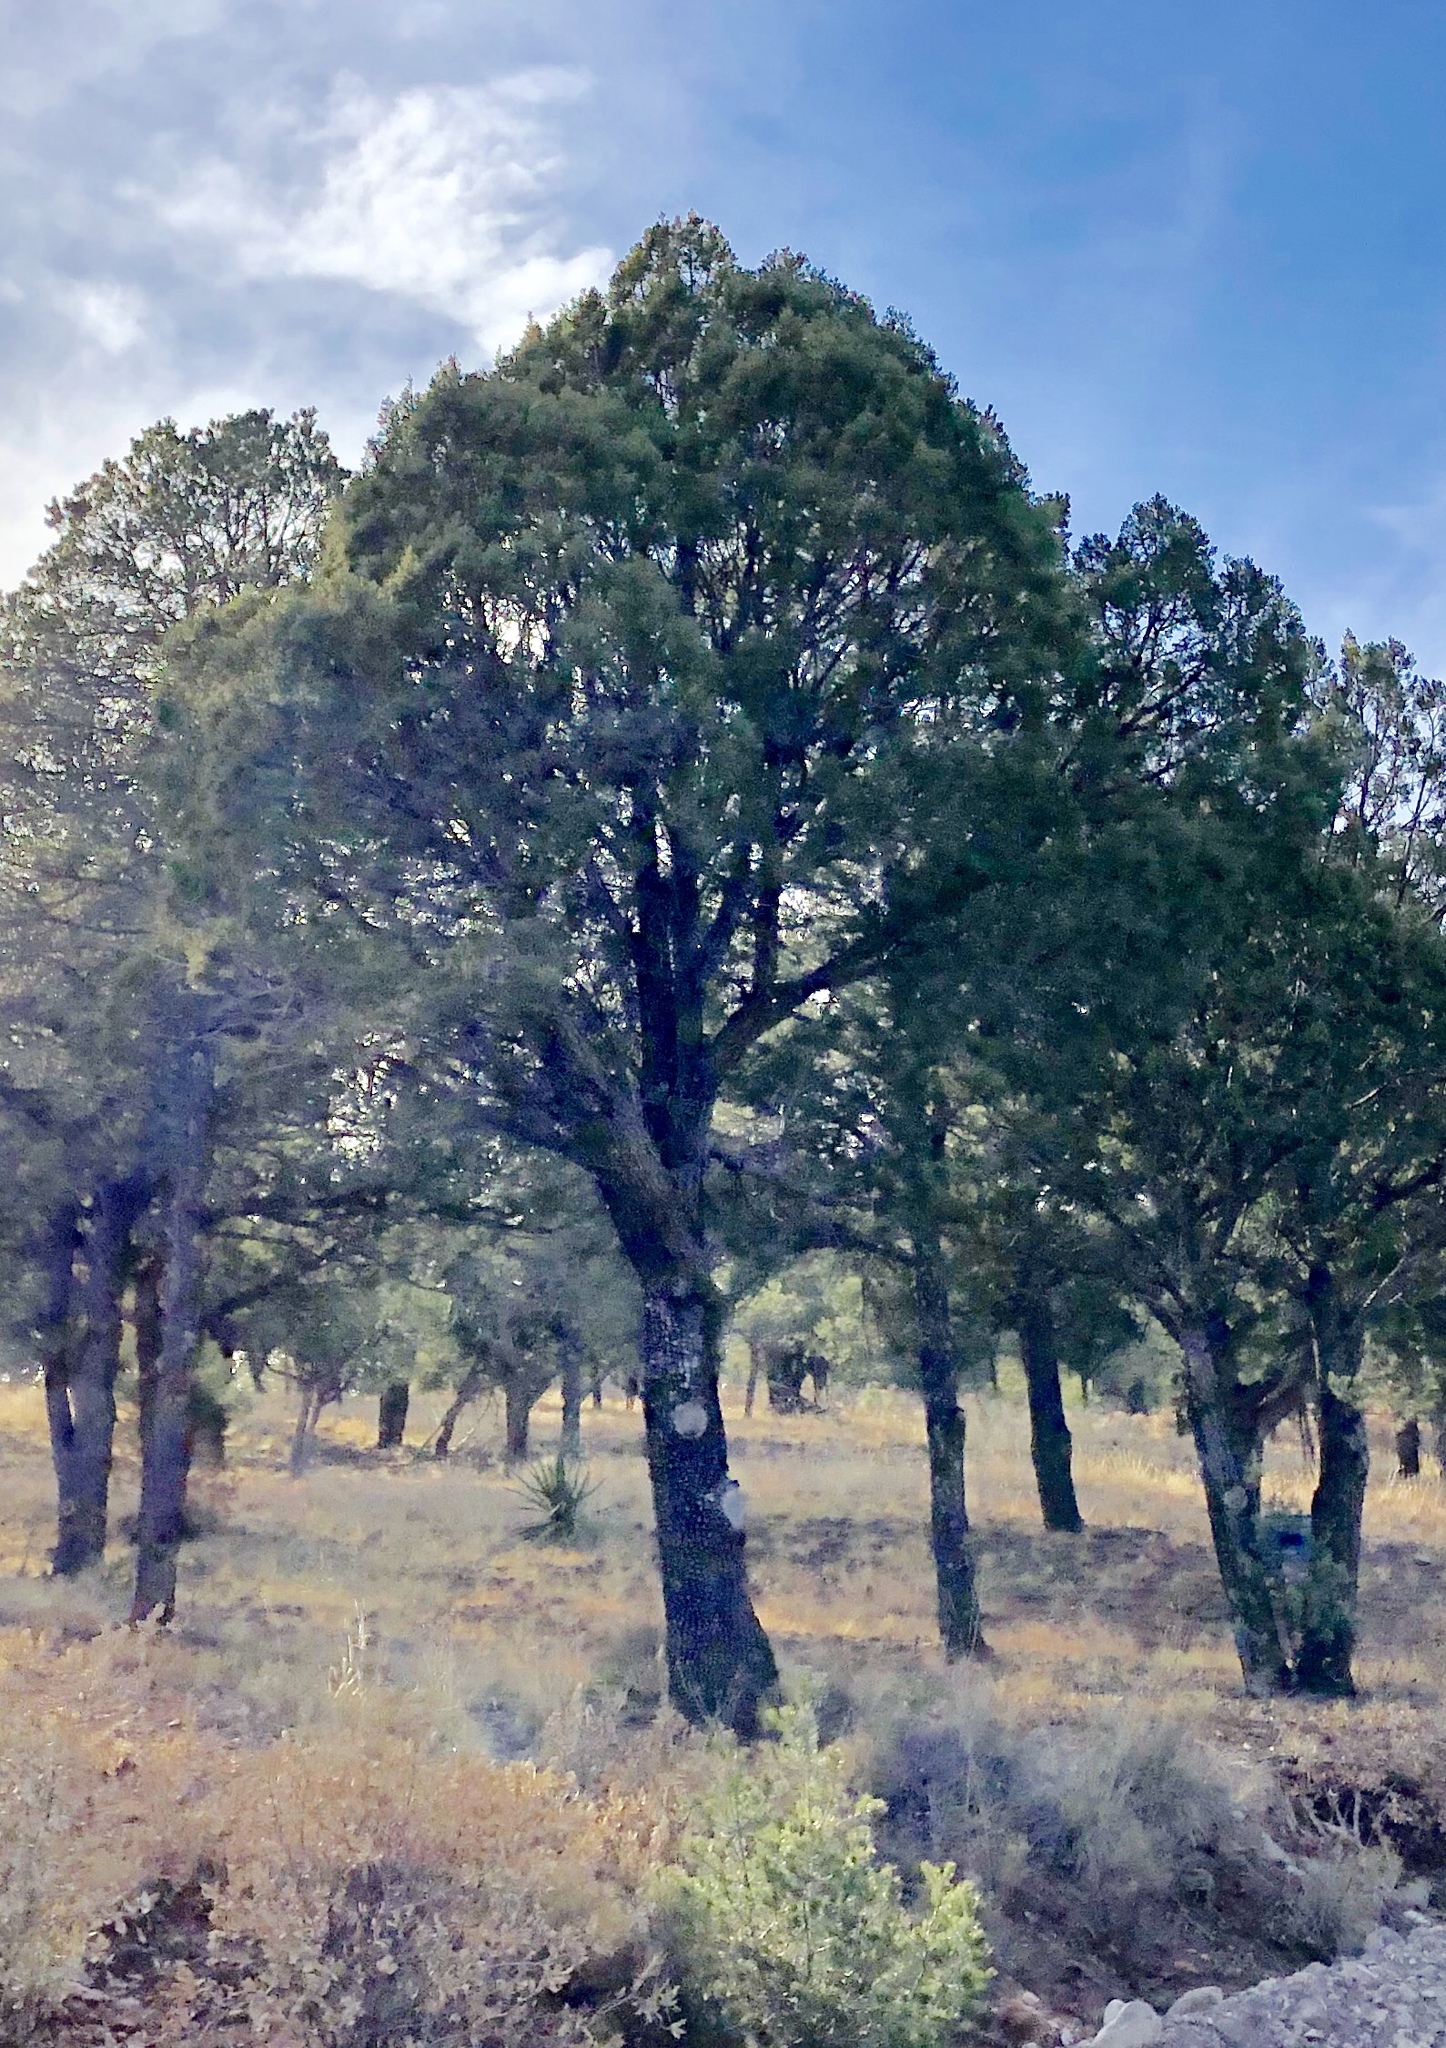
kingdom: Plantae
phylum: Tracheophyta
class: Pinopsida
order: Pinales
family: Cupressaceae
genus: Juniperus
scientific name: Juniperus deppeana
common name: Alligator juniper
